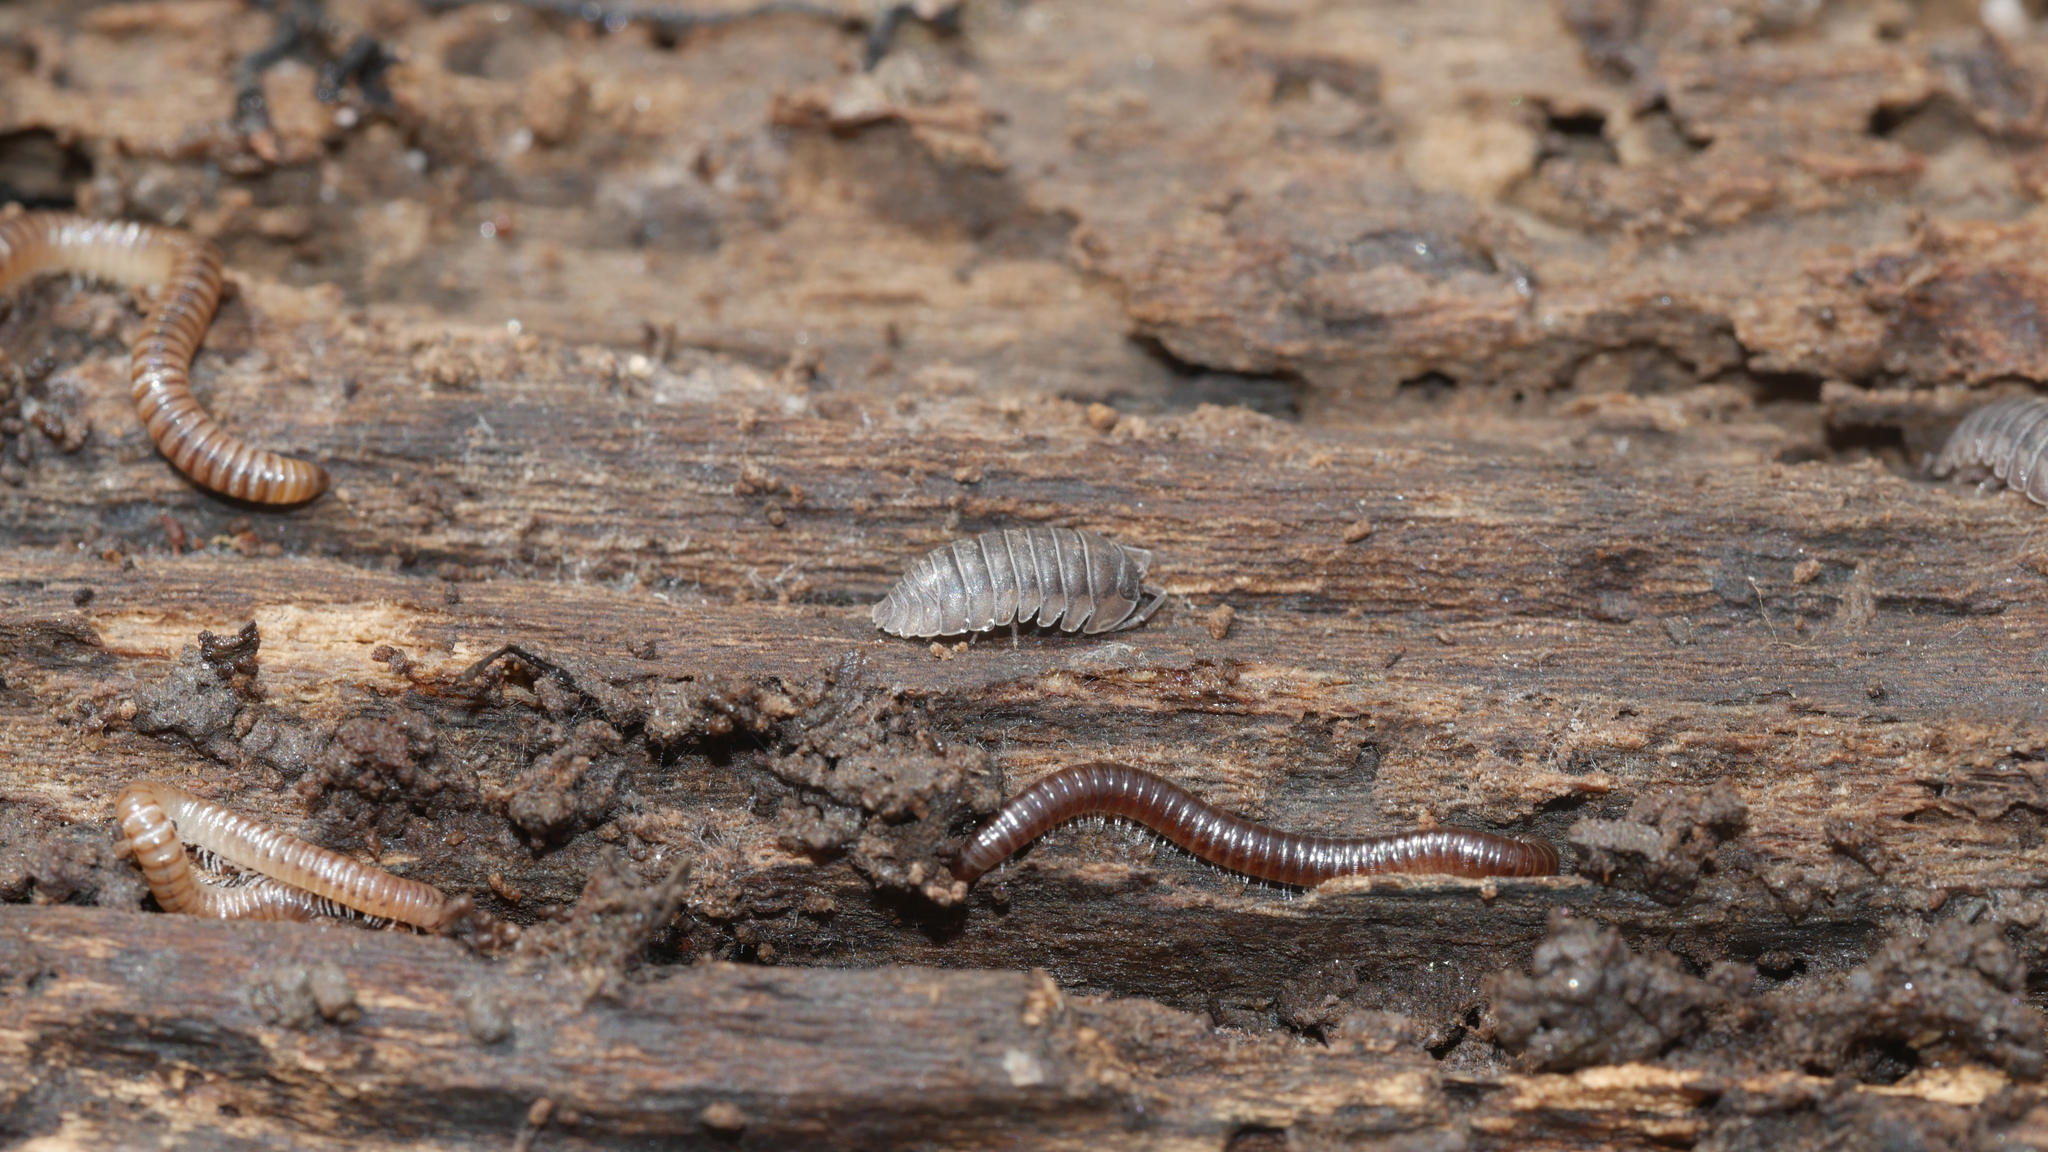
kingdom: Animalia
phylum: Arthropoda
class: Malacostraca
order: Isopoda
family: Armadillidiidae
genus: Armadillidium
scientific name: Armadillidium nasatum
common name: Isopod
